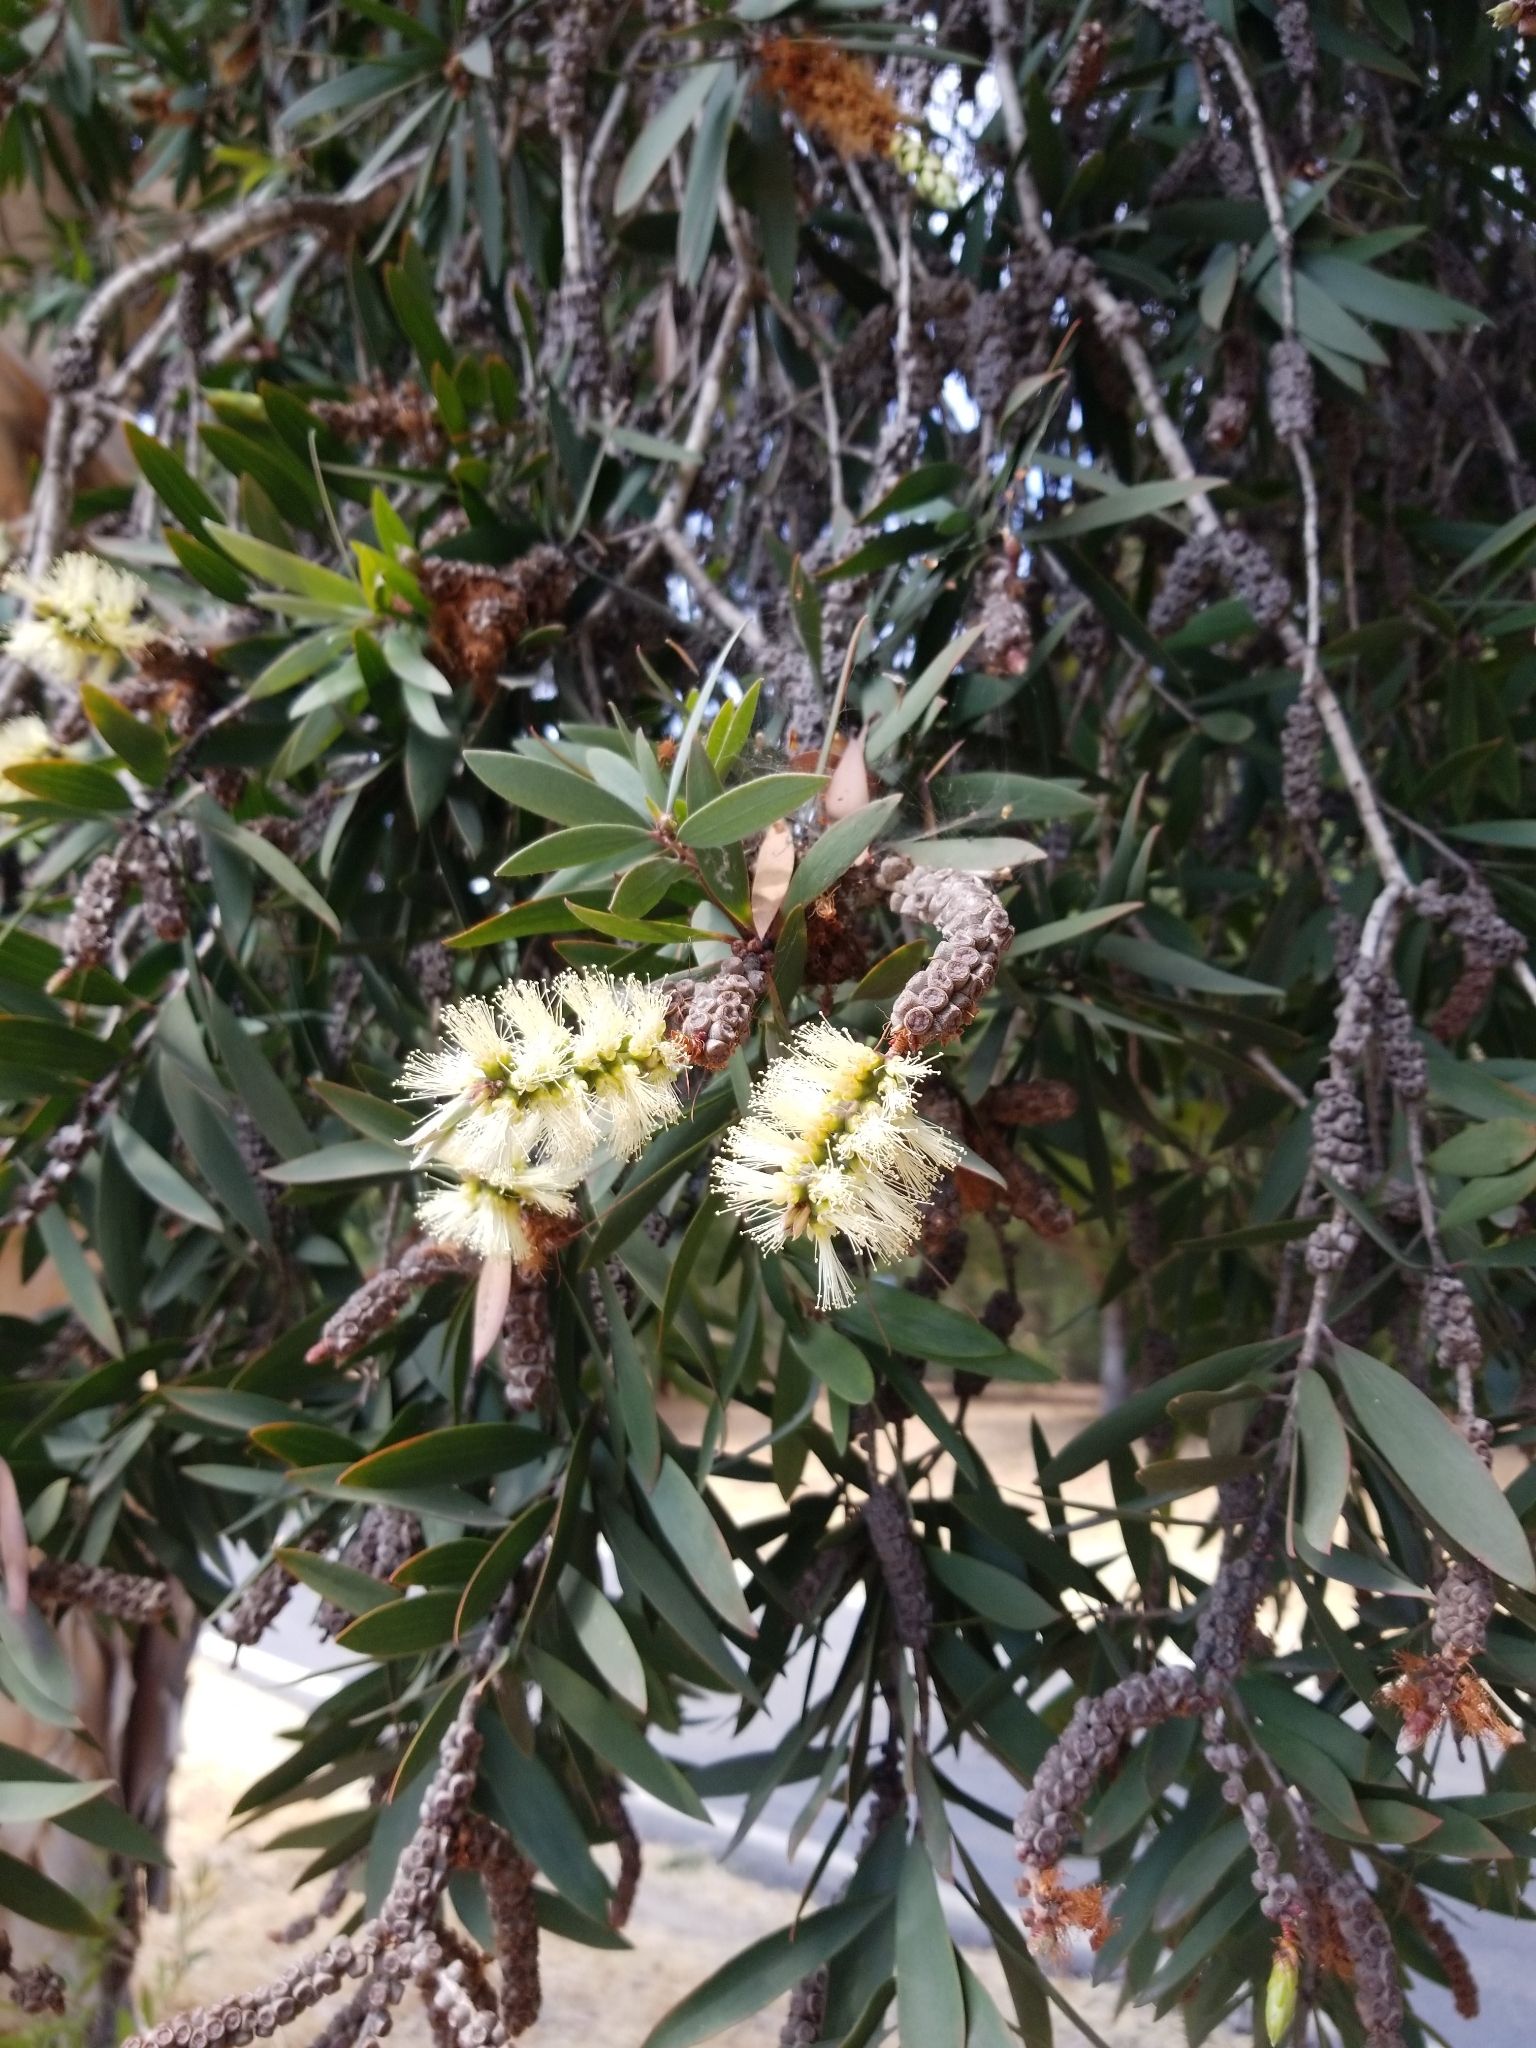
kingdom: Plantae
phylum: Tracheophyta
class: Magnoliopsida
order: Myrtales
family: Myrtaceae
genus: Melaleuca
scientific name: Melaleuca quinquenervia
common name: Punktree
